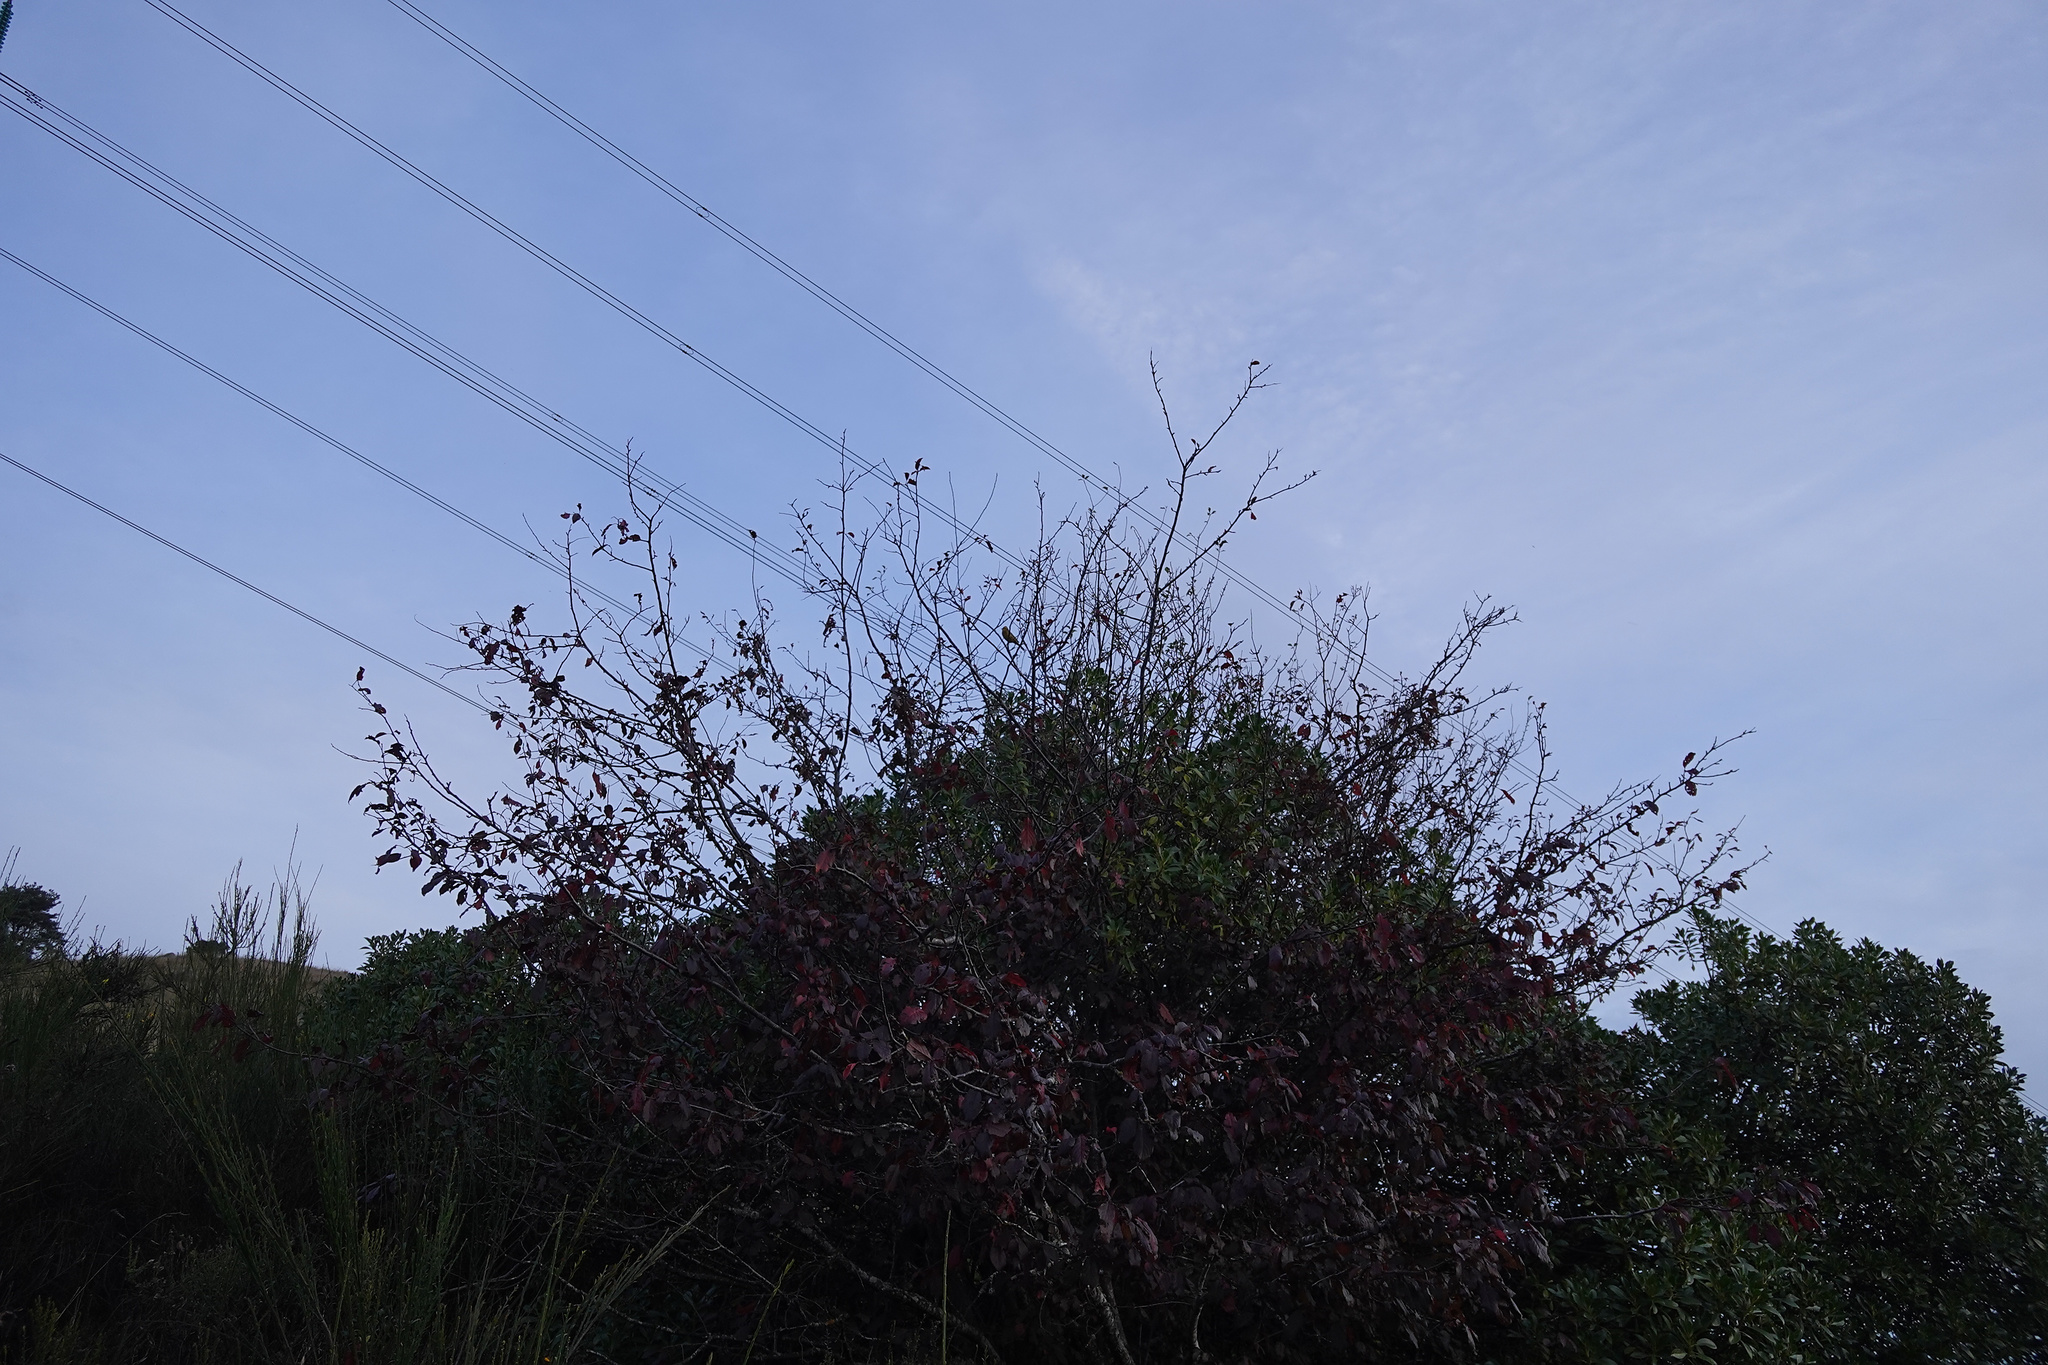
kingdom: Animalia
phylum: Chordata
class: Aves
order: Passeriformes
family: Emberizidae
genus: Emberiza
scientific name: Emberiza citrinella
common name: Yellowhammer
